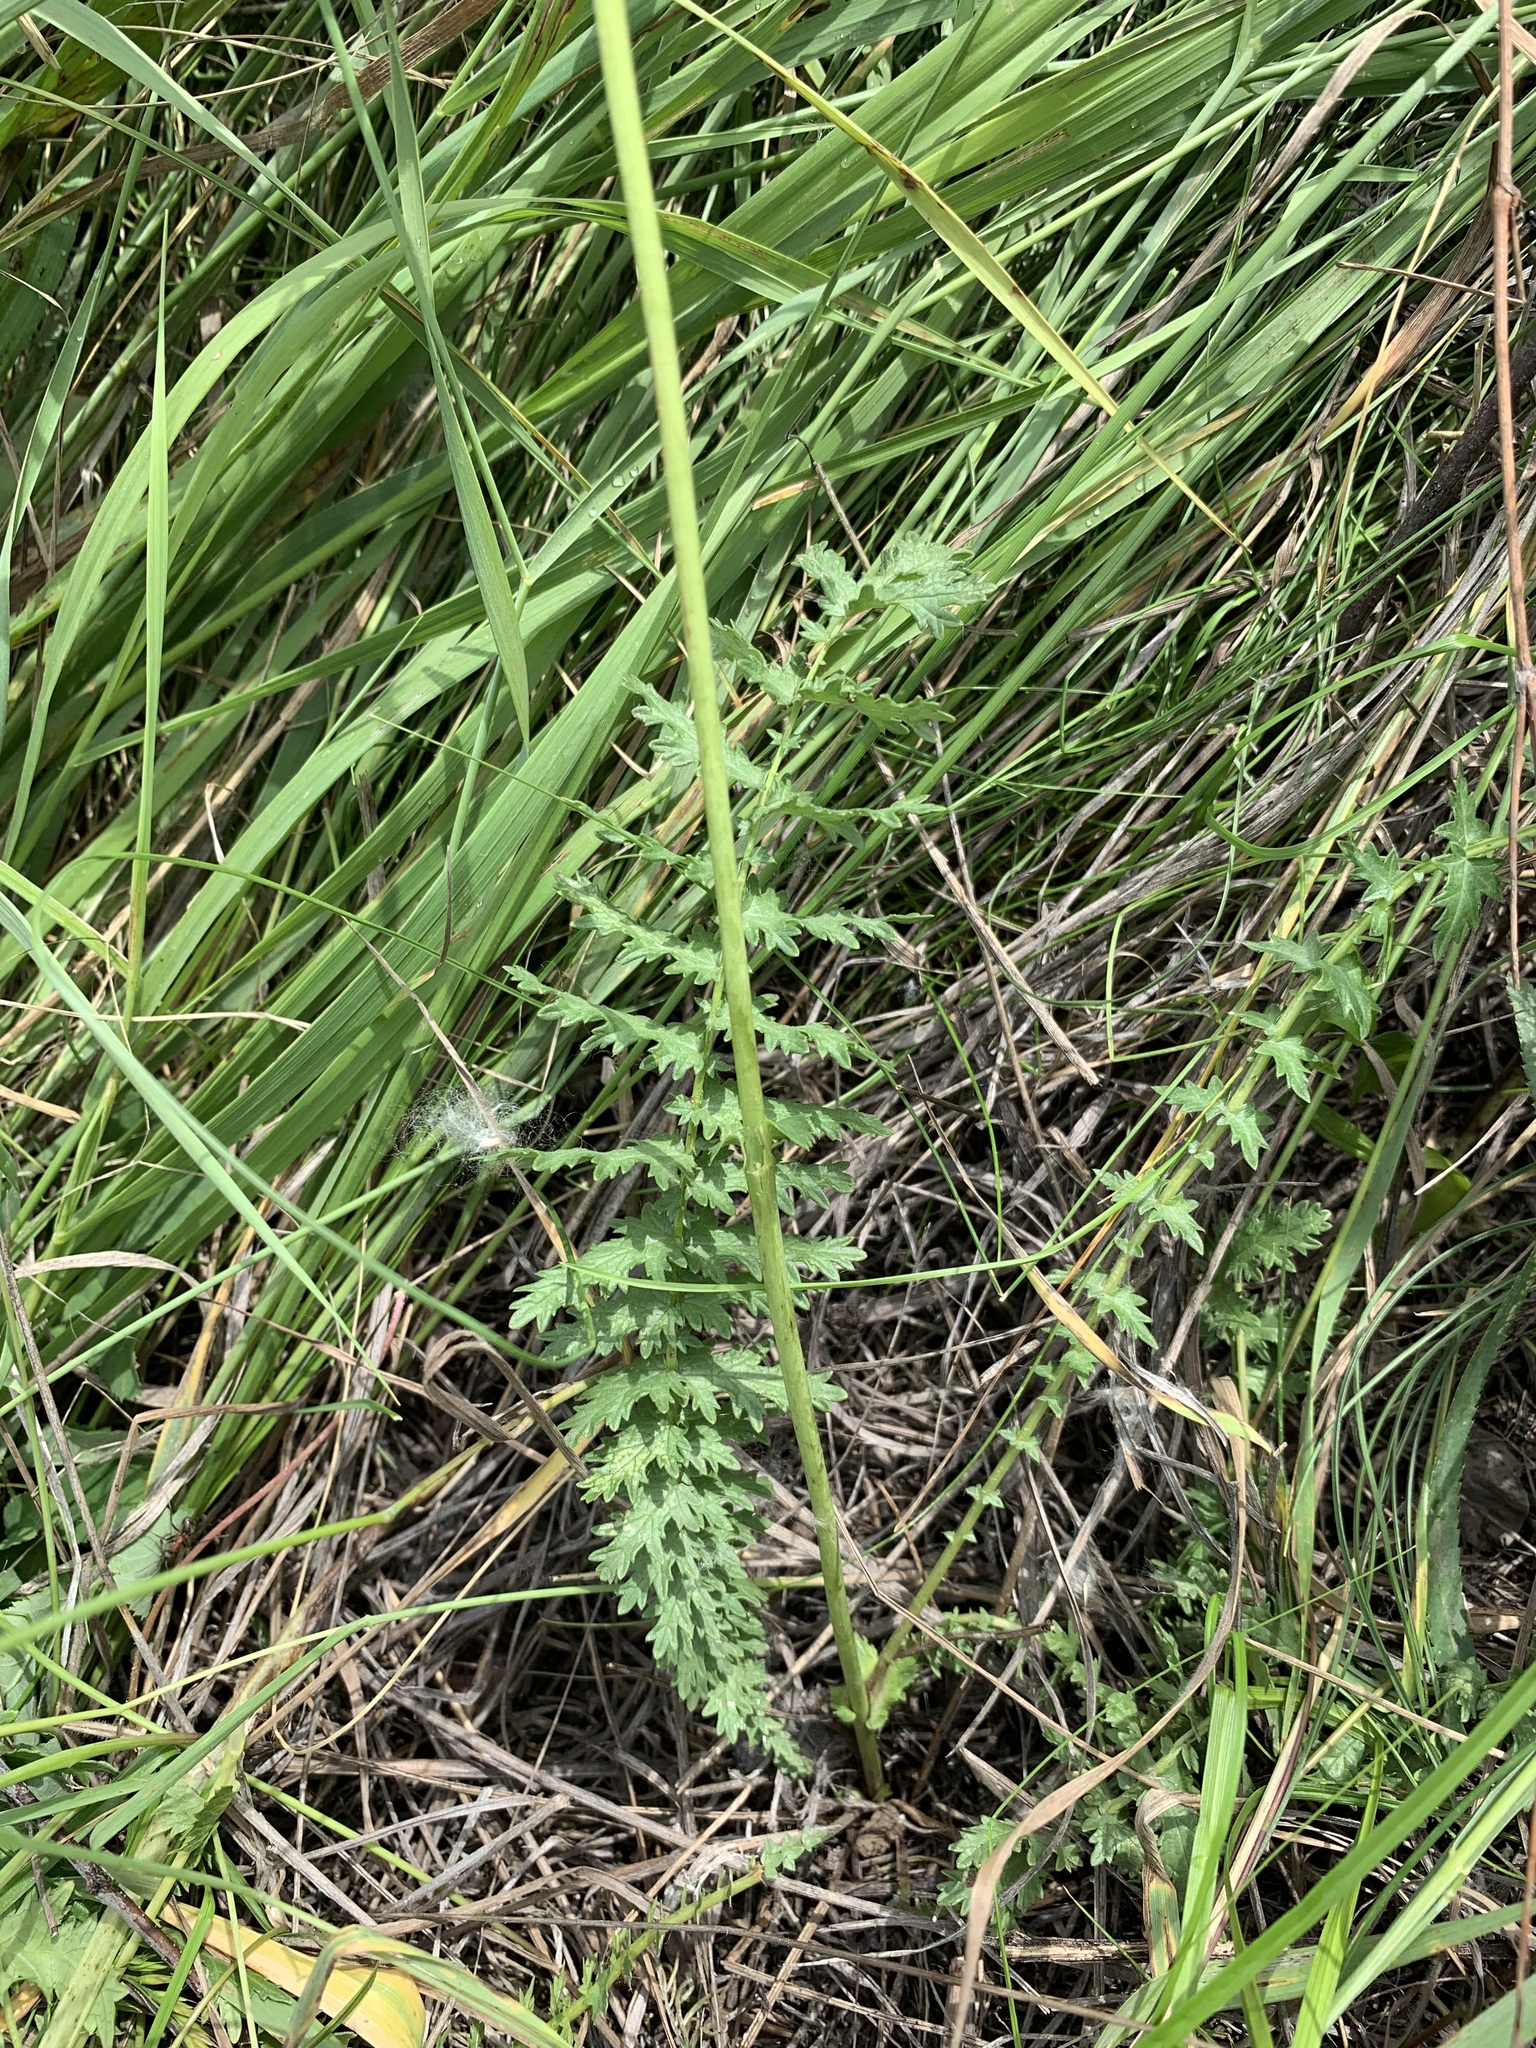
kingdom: Plantae
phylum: Tracheophyta
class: Magnoliopsida
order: Rosales
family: Rosaceae
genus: Filipendula
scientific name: Filipendula vulgaris
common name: Dropwort
